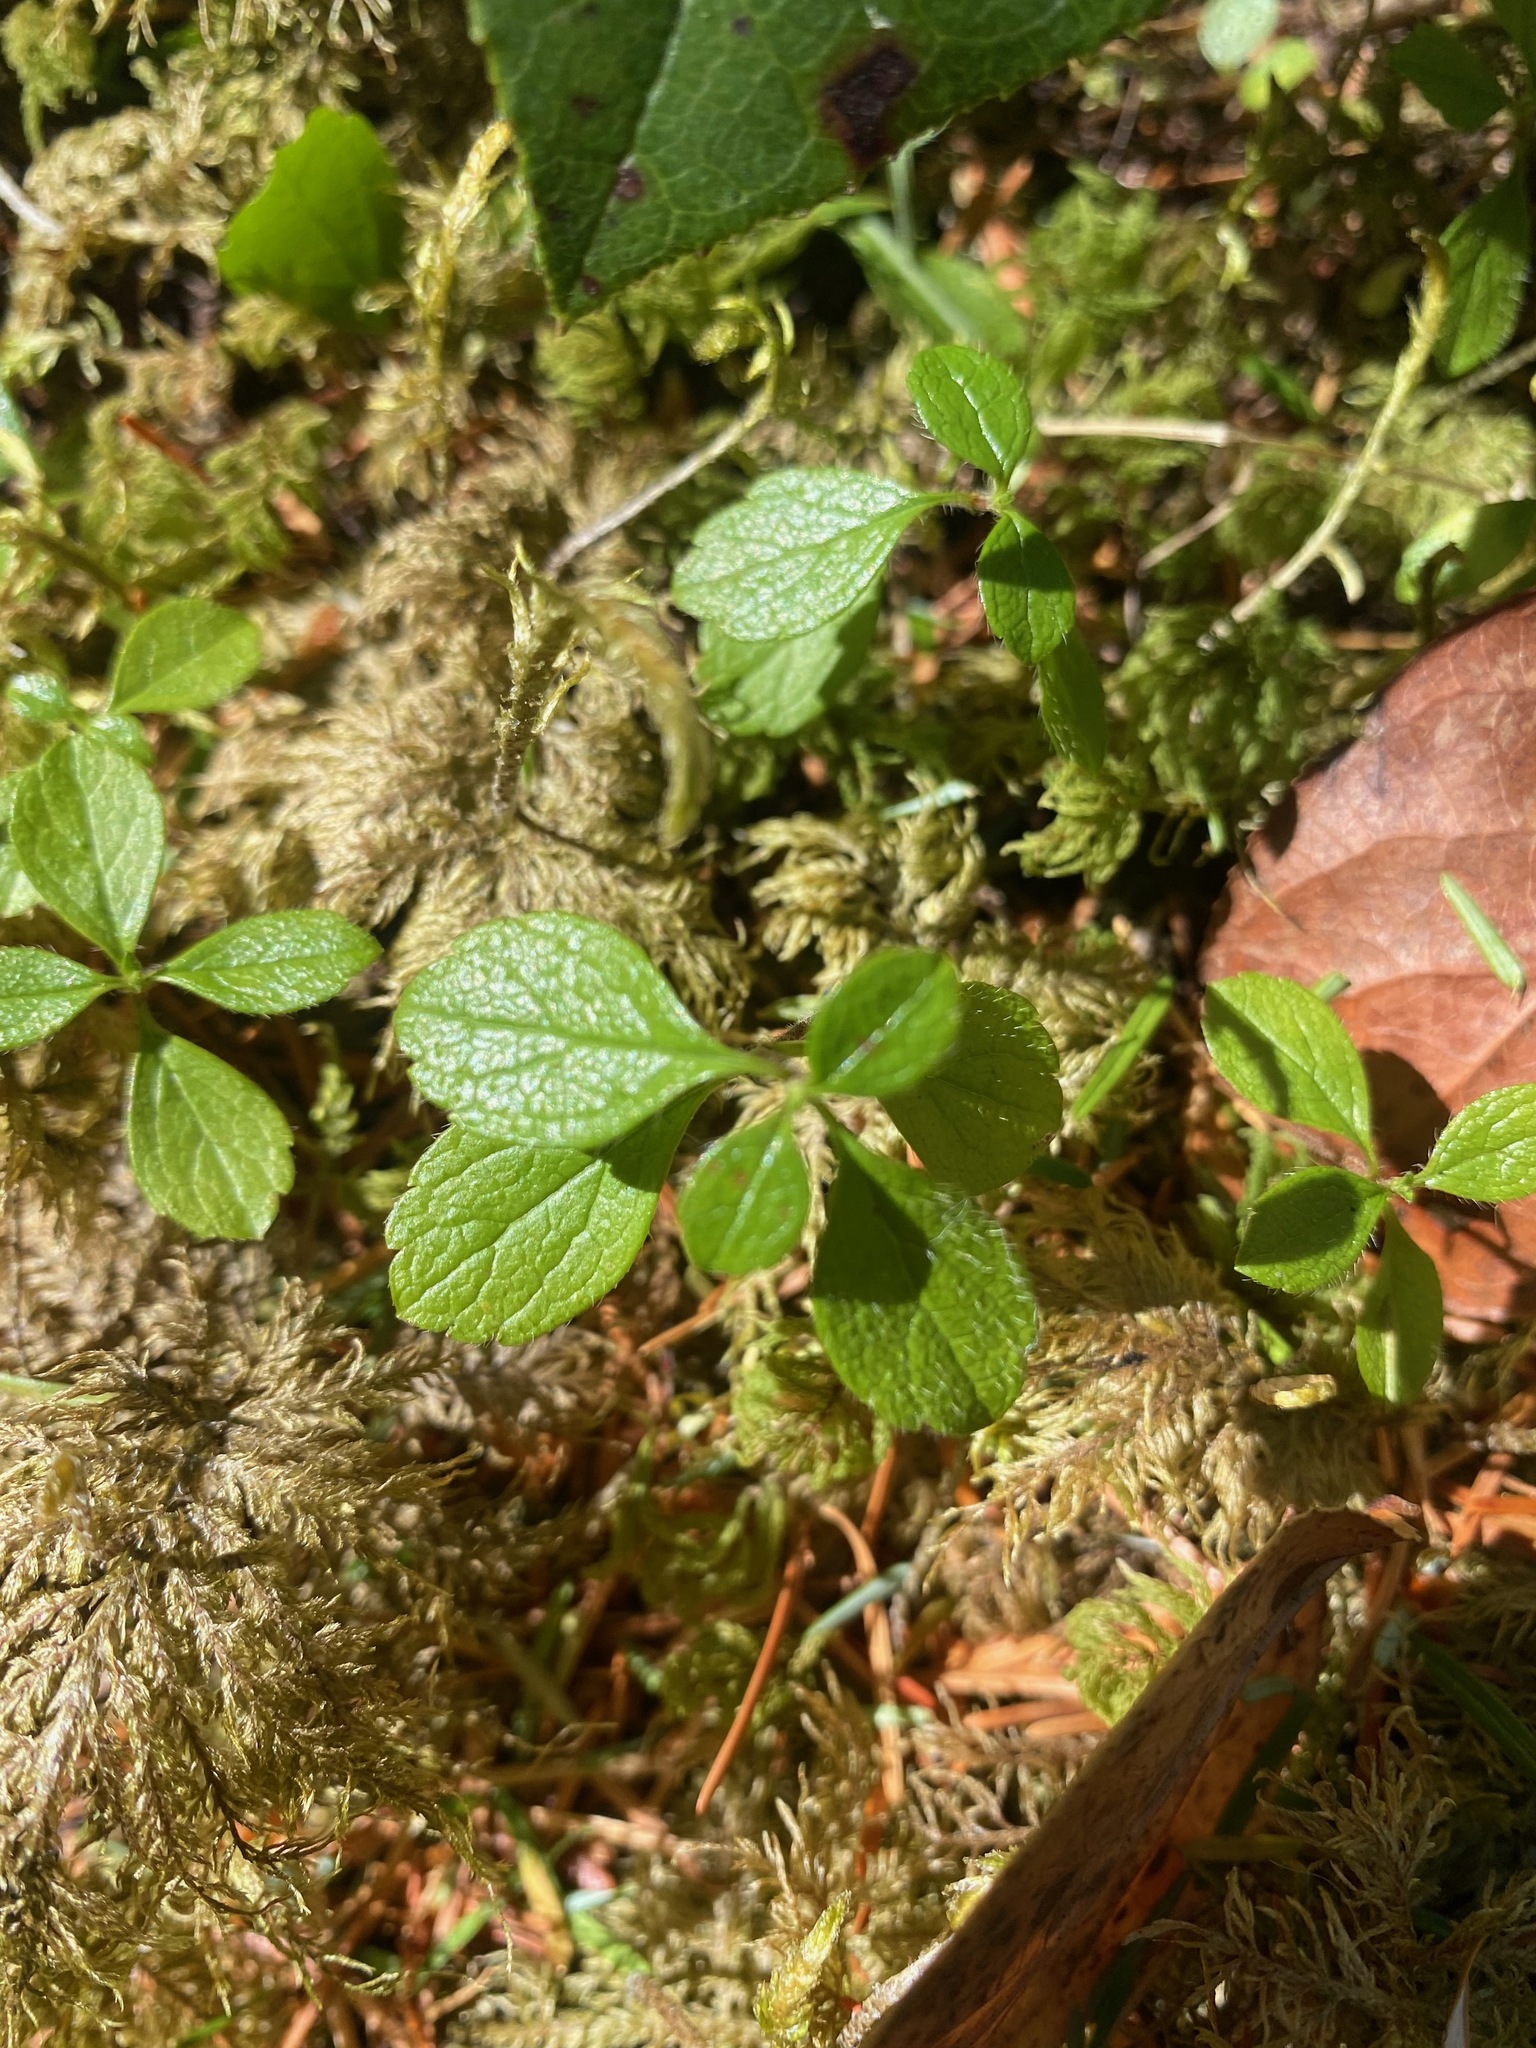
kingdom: Plantae
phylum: Tracheophyta
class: Magnoliopsida
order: Dipsacales
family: Caprifoliaceae
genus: Linnaea
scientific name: Linnaea borealis
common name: Twinflower
